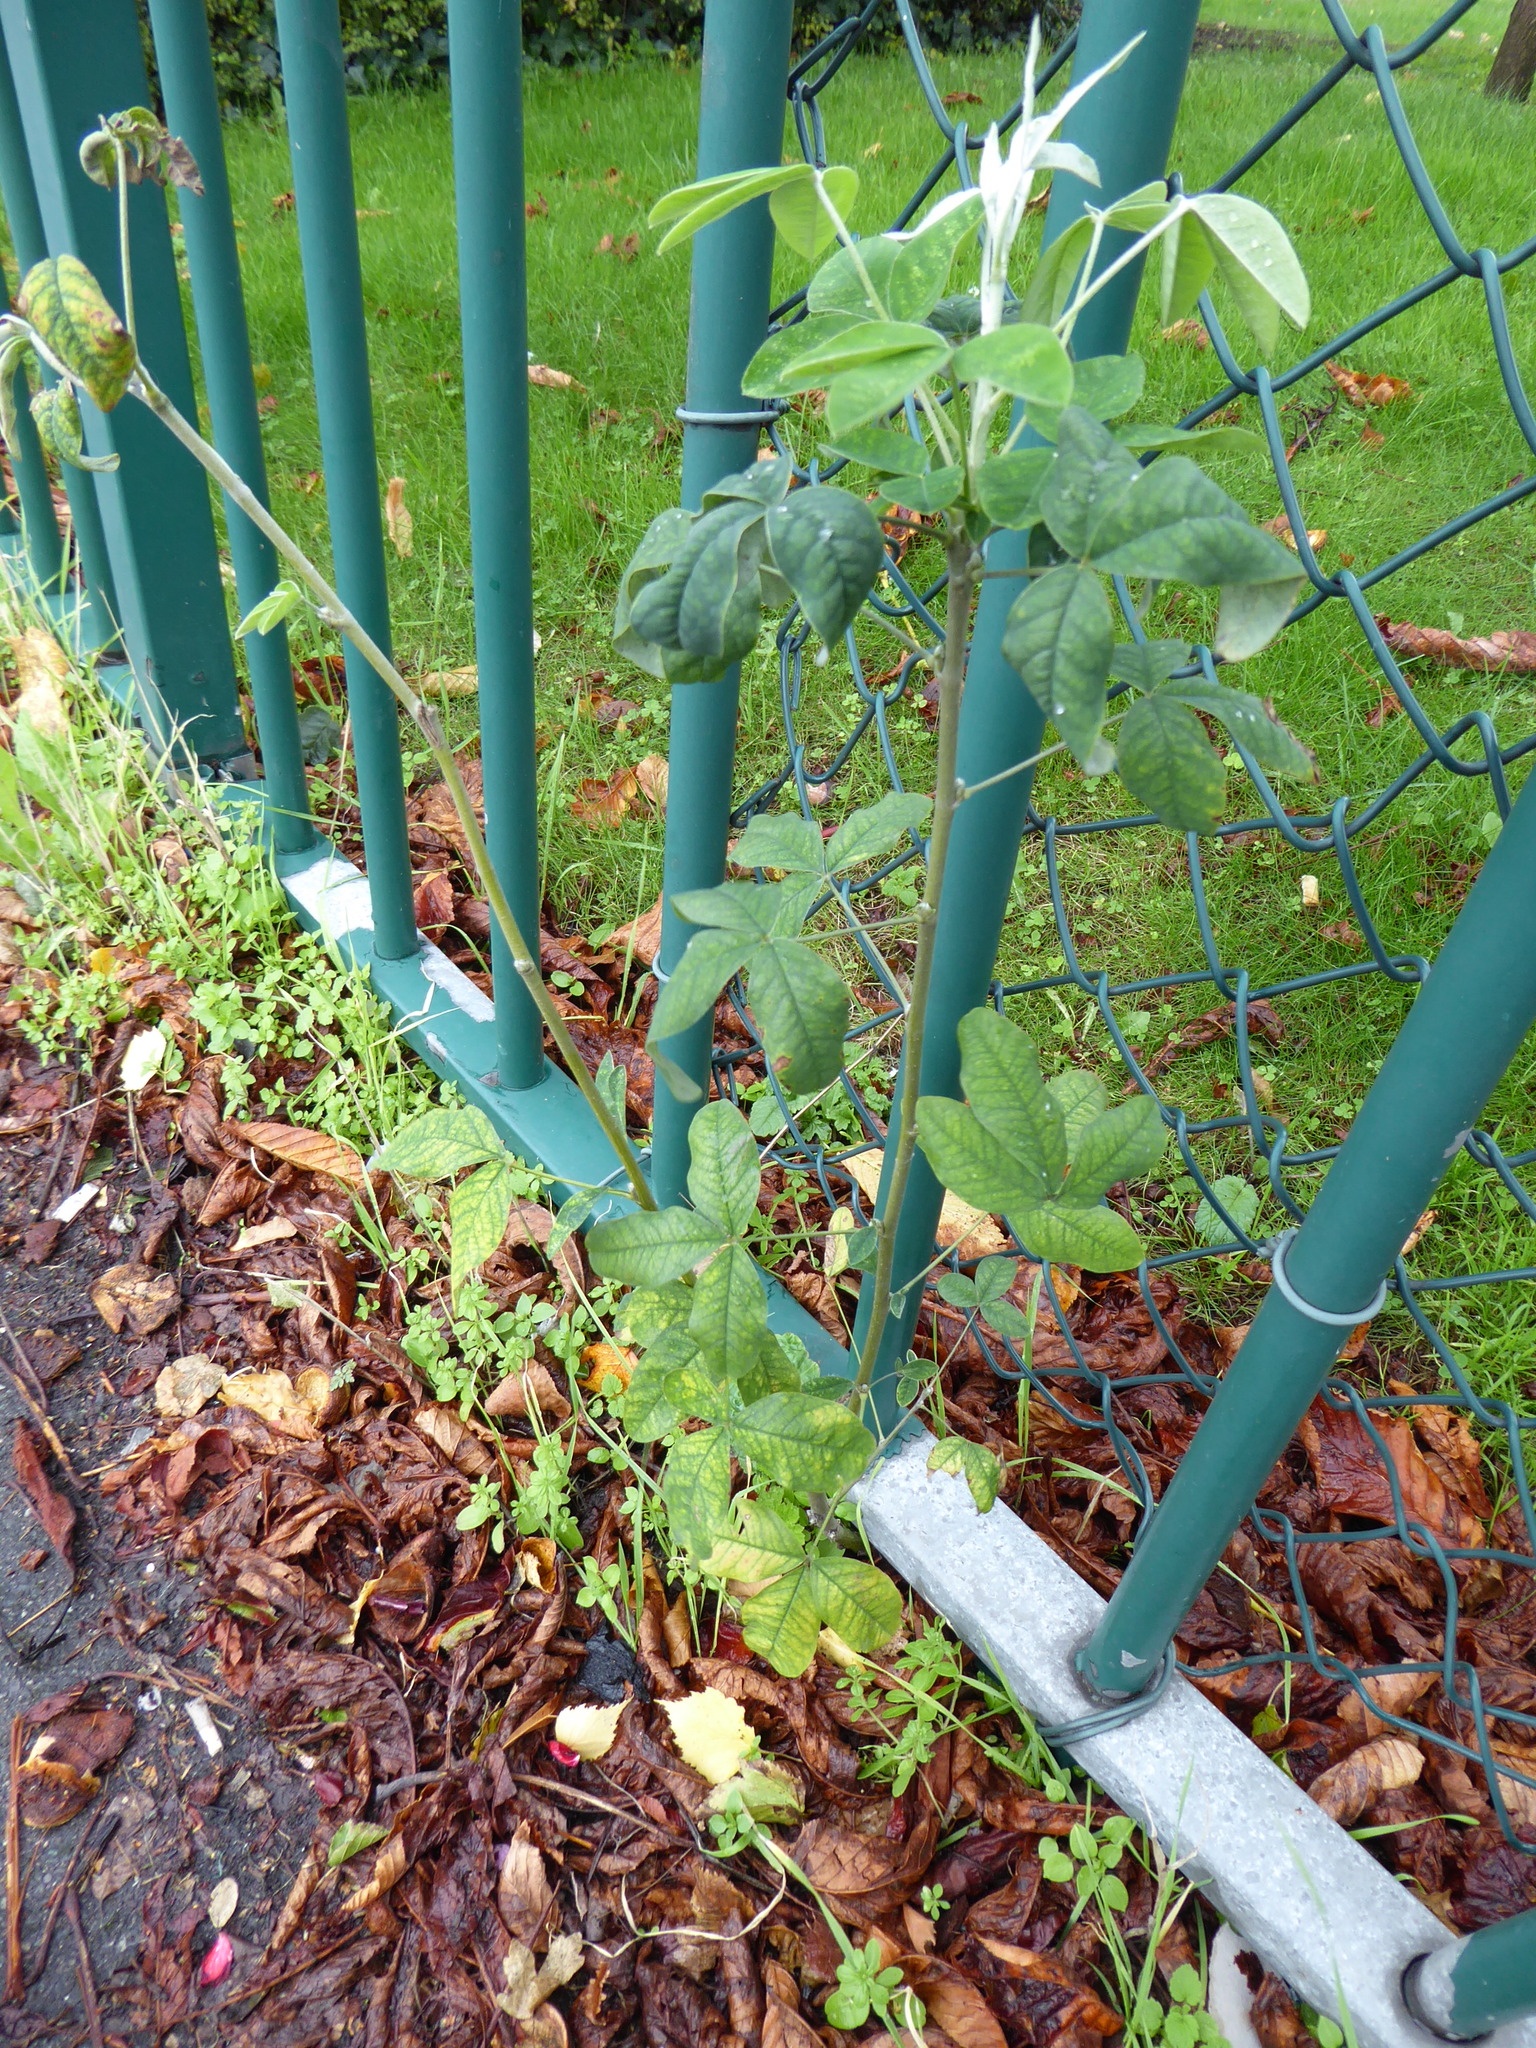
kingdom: Plantae
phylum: Tracheophyta
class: Magnoliopsida
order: Fabales
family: Fabaceae
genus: Laburnum
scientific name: Laburnum anagyroides
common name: Laburnum
